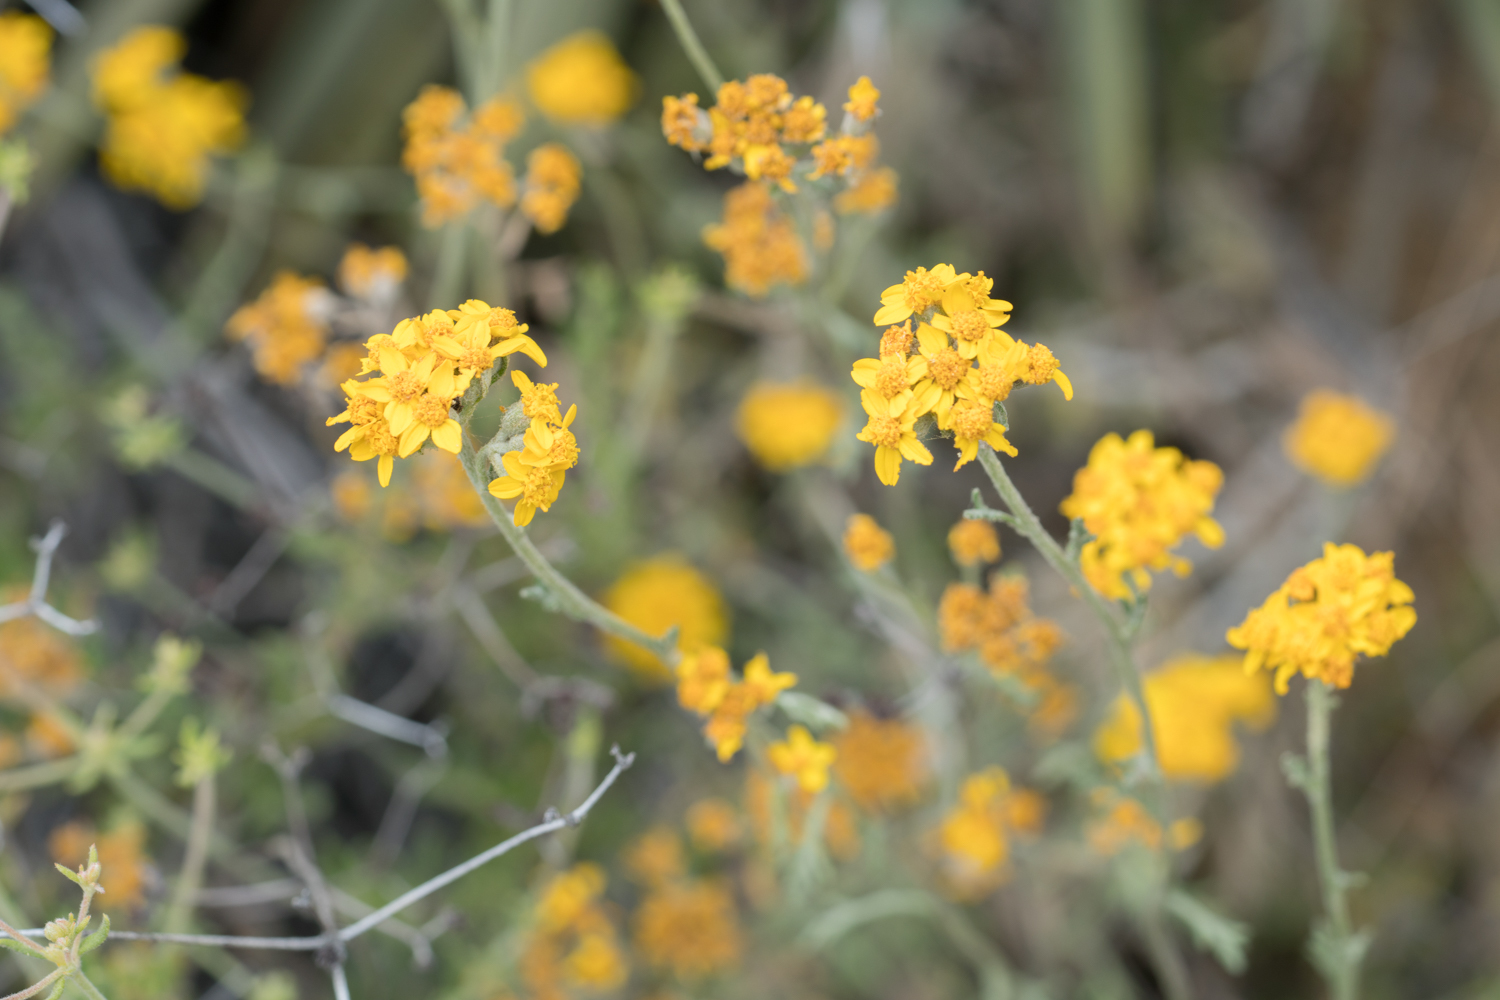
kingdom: Plantae
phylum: Tracheophyta
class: Magnoliopsida
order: Asterales
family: Asteraceae
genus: Eriophyllum
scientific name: Eriophyllum confertiflorum
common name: Golden-yarrow
